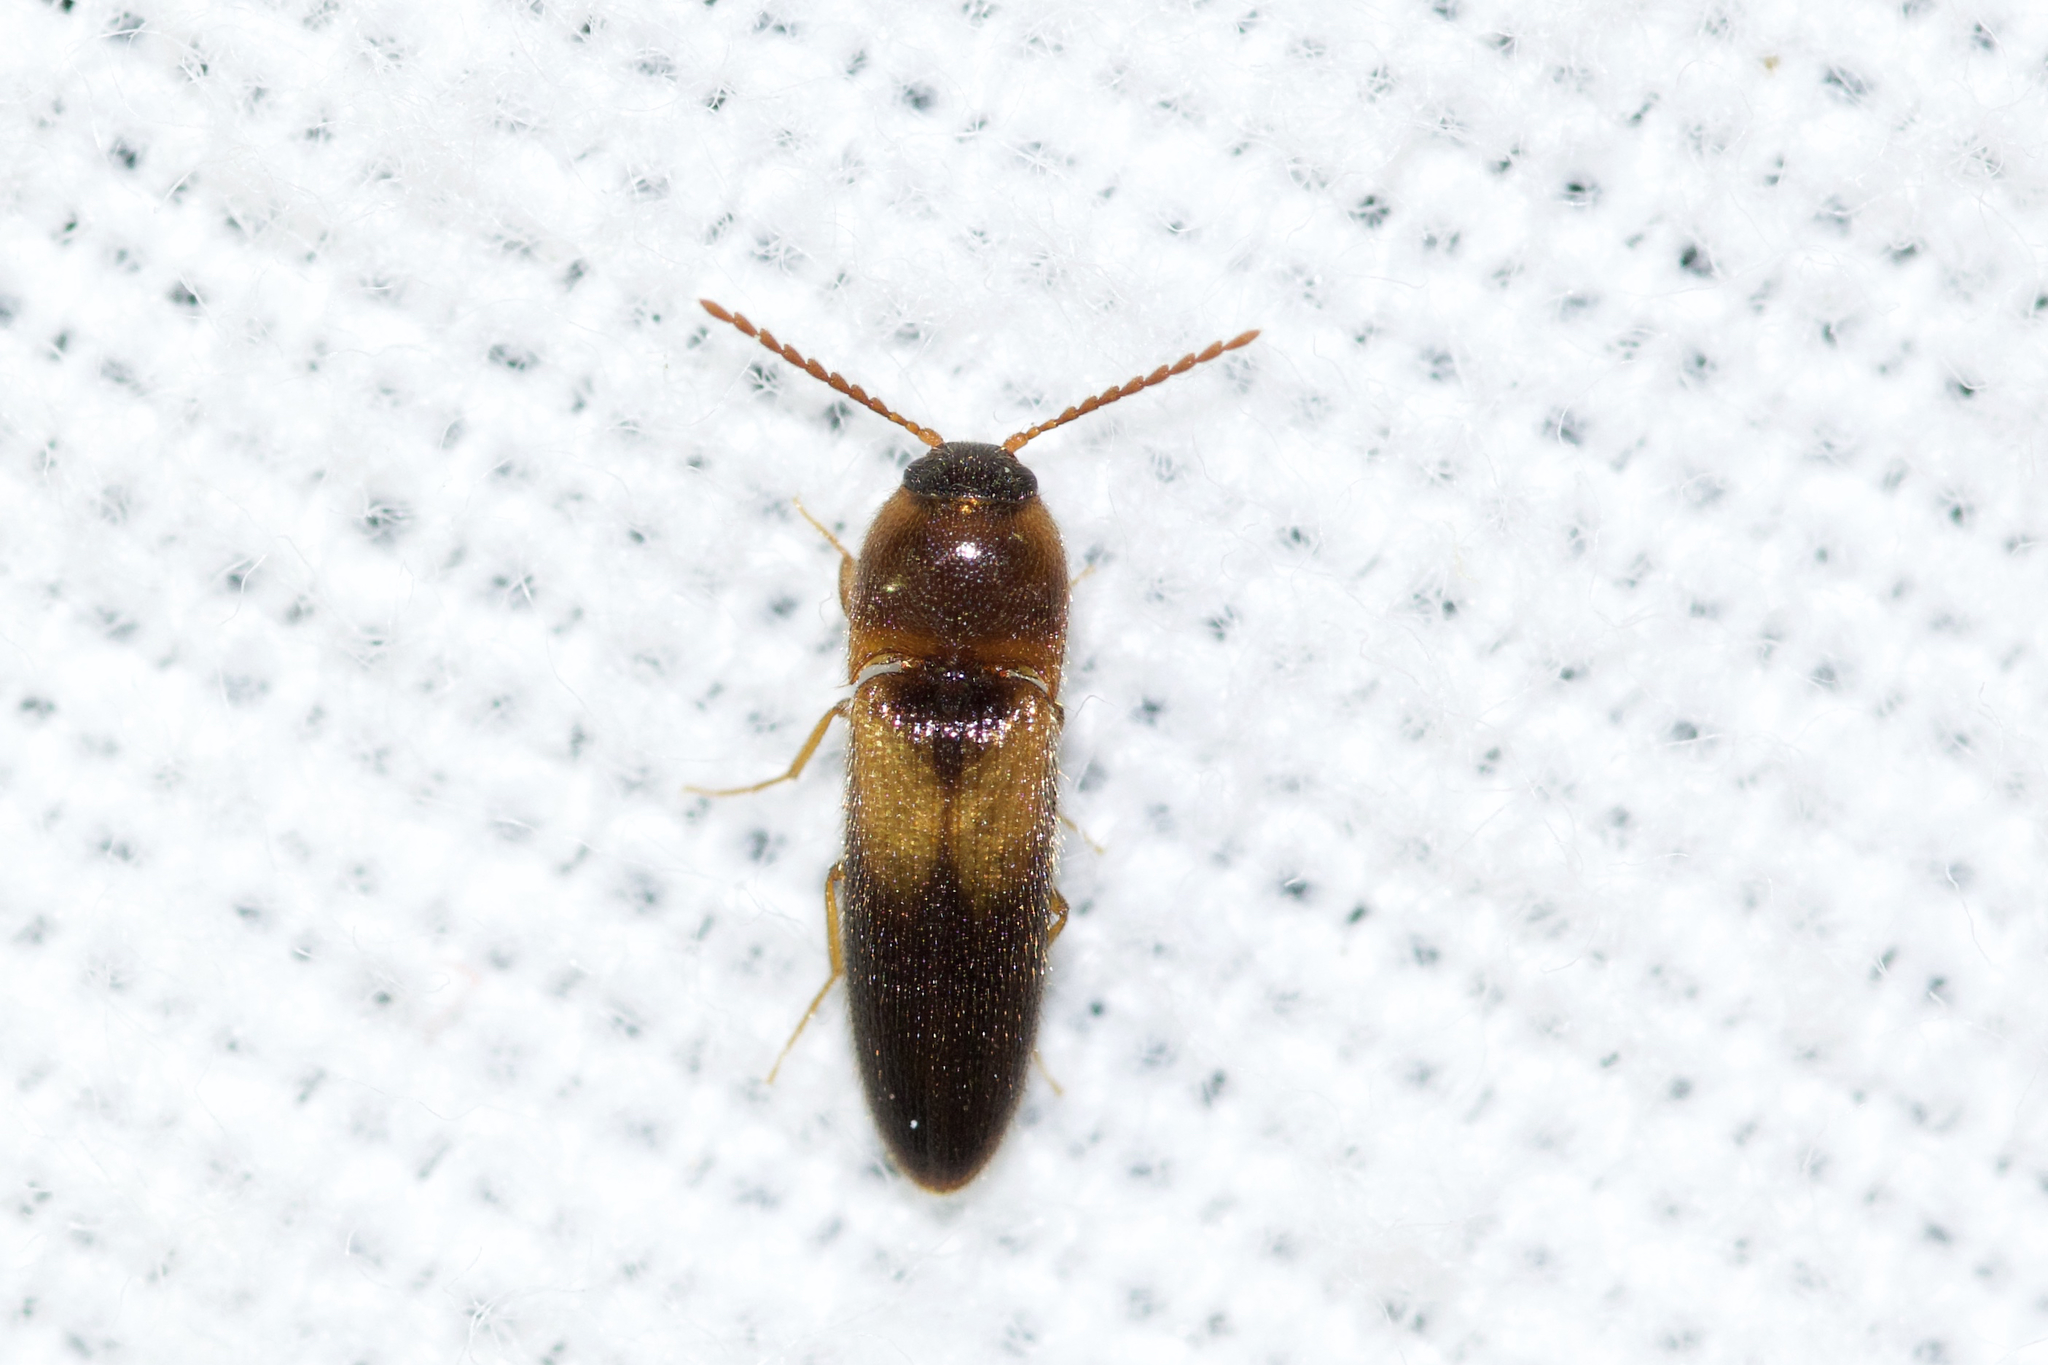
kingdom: Animalia
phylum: Arthropoda
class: Insecta
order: Coleoptera
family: Elateridae
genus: Ampedus
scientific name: Ampedus areolatus
